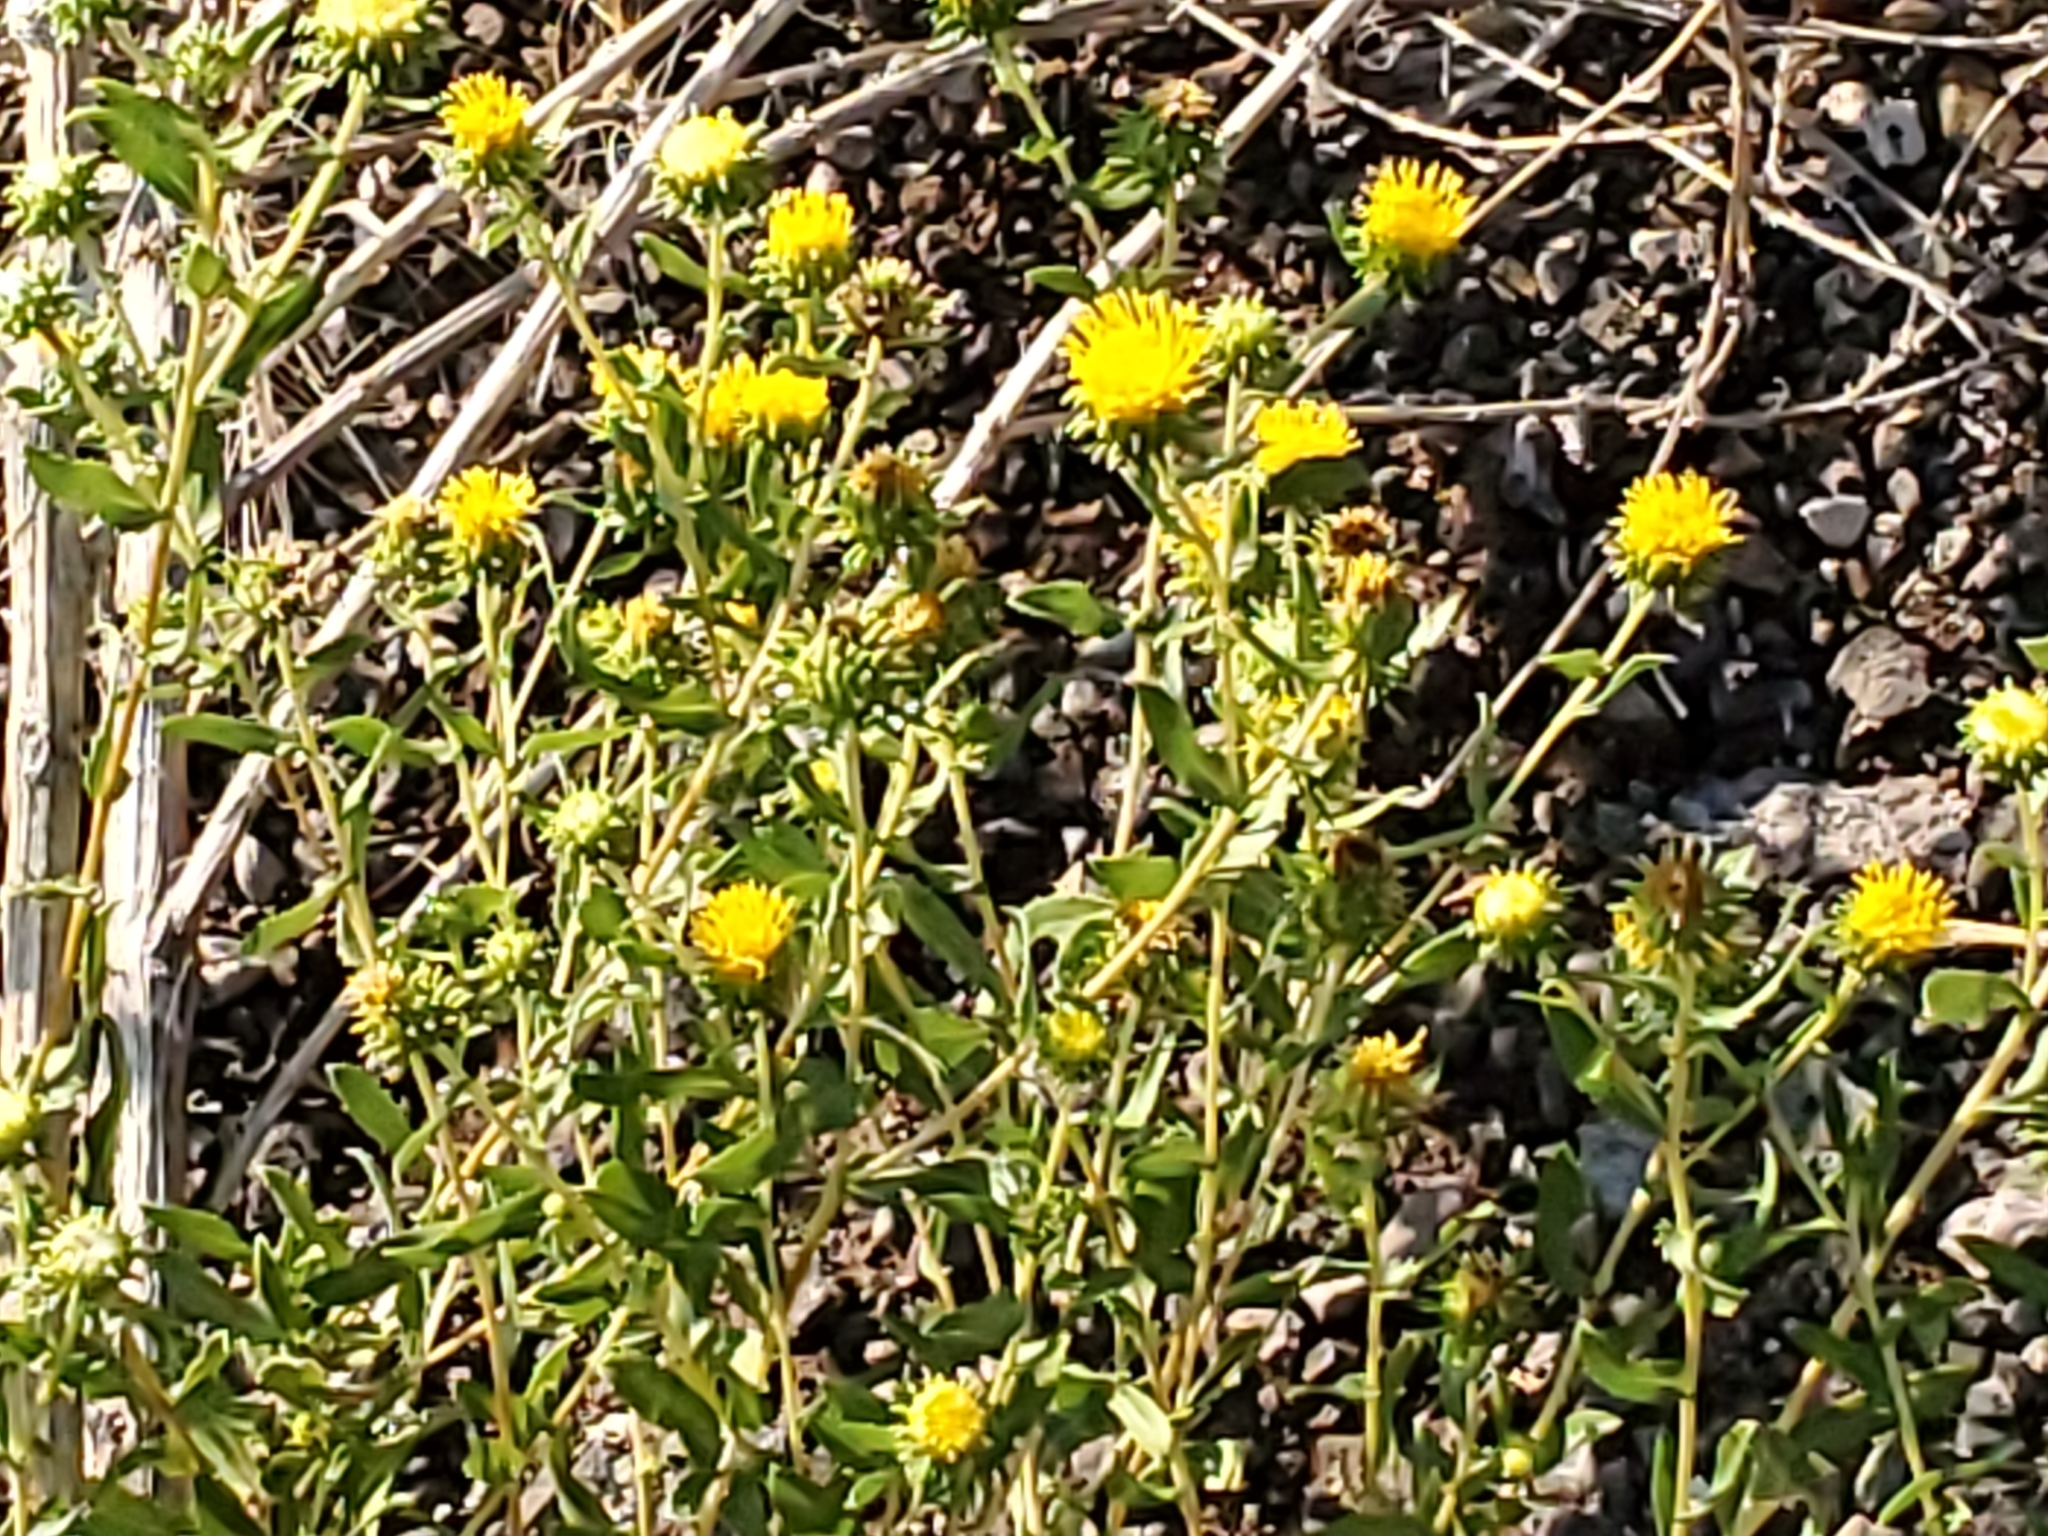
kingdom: Plantae
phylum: Tracheophyta
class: Magnoliopsida
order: Asterales
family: Asteraceae
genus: Grindelia
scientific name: Grindelia nuda
